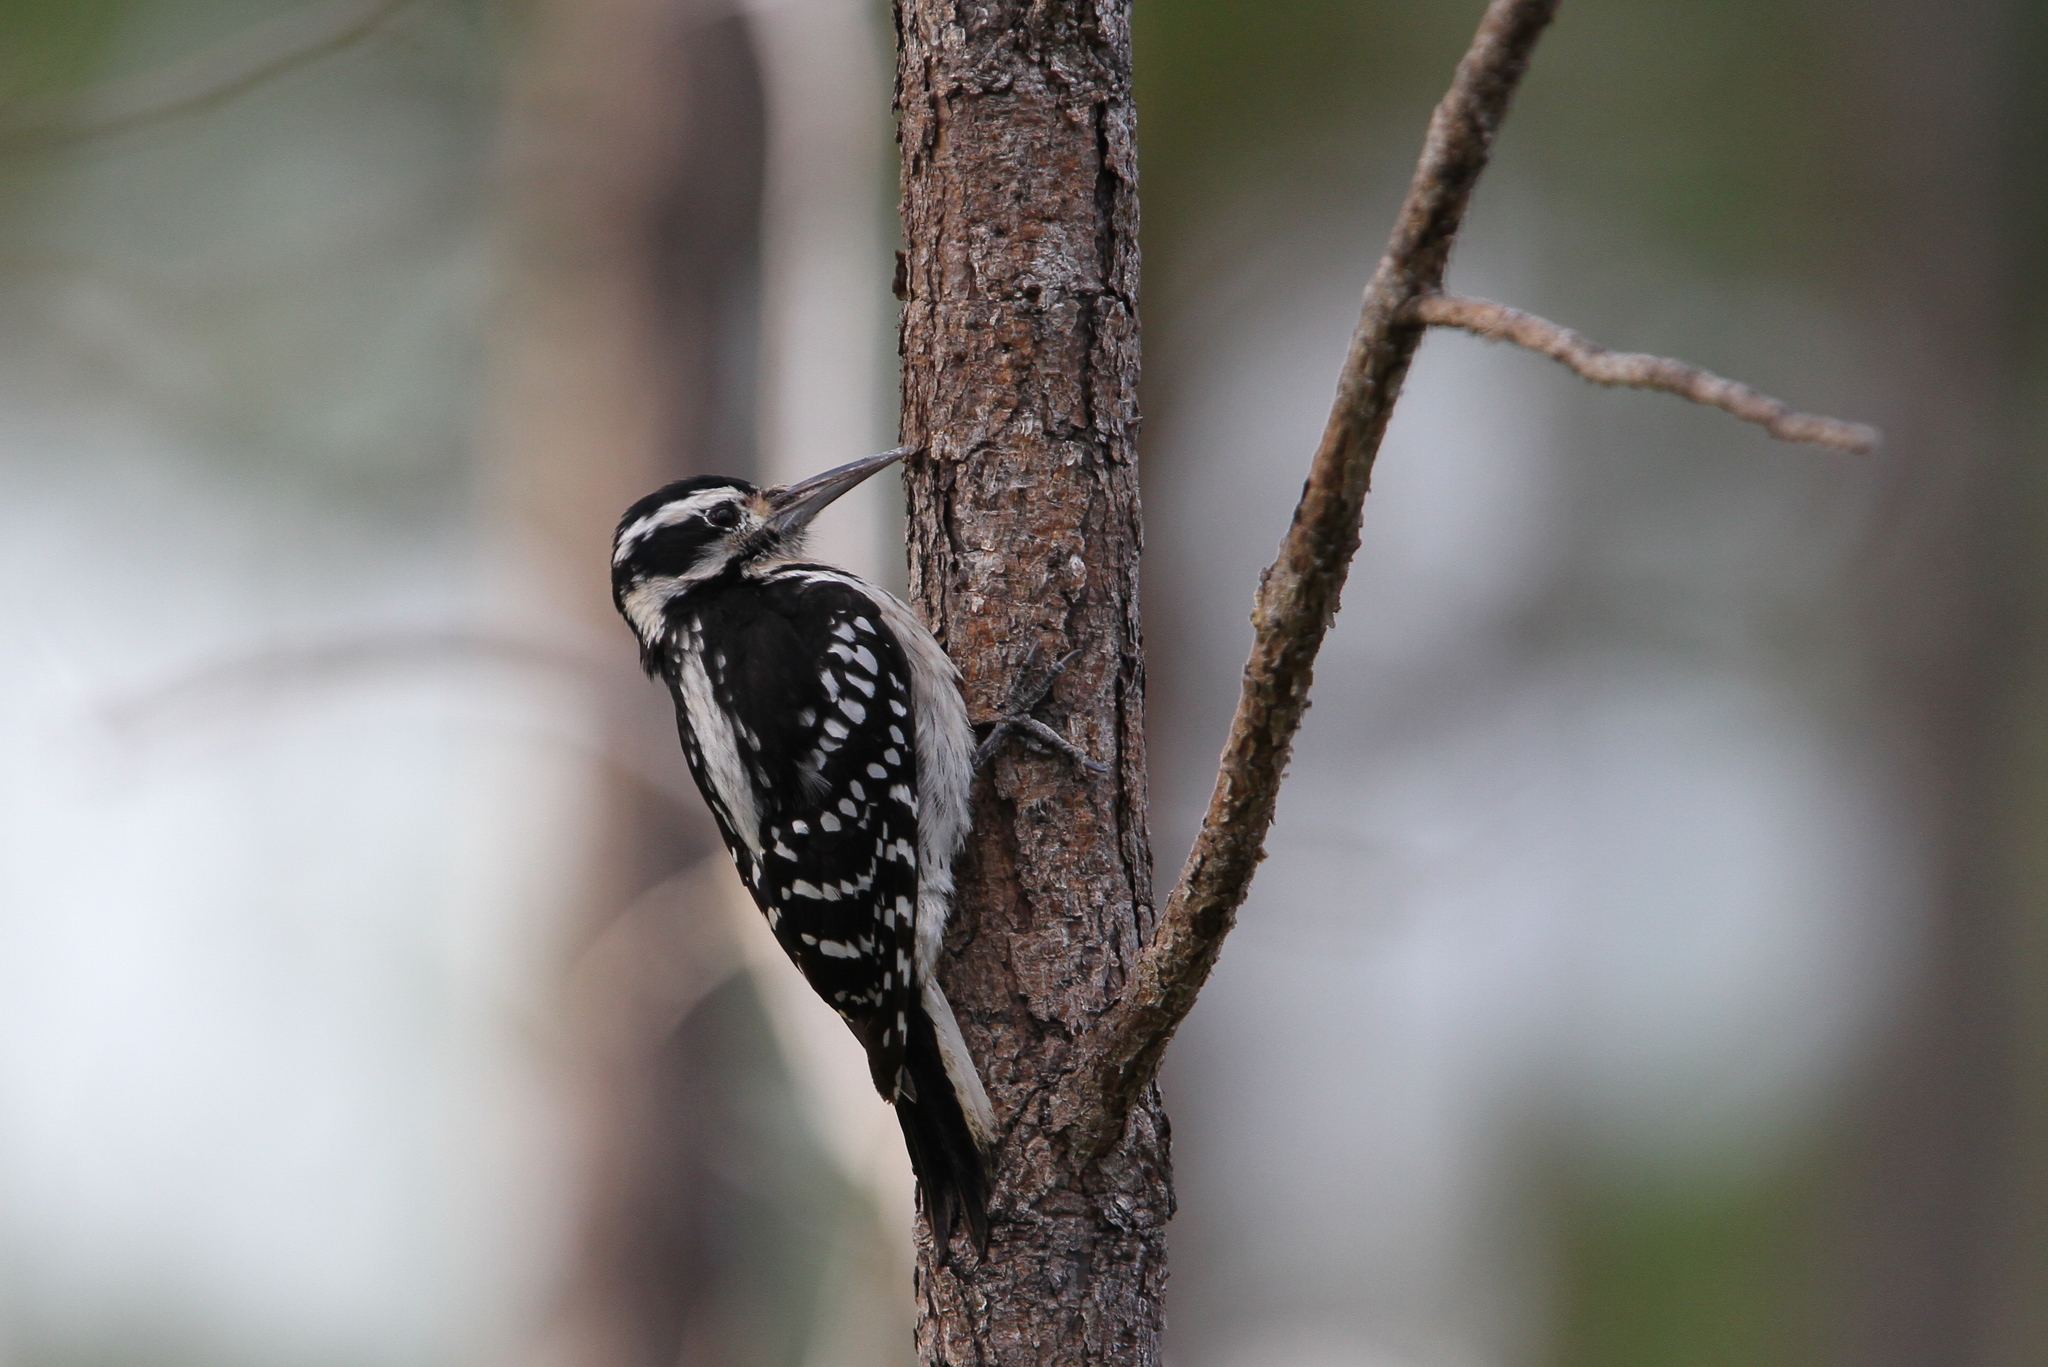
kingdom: Animalia
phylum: Chordata
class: Aves
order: Piciformes
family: Picidae
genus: Leuconotopicus
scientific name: Leuconotopicus villosus
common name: Hairy woodpecker
